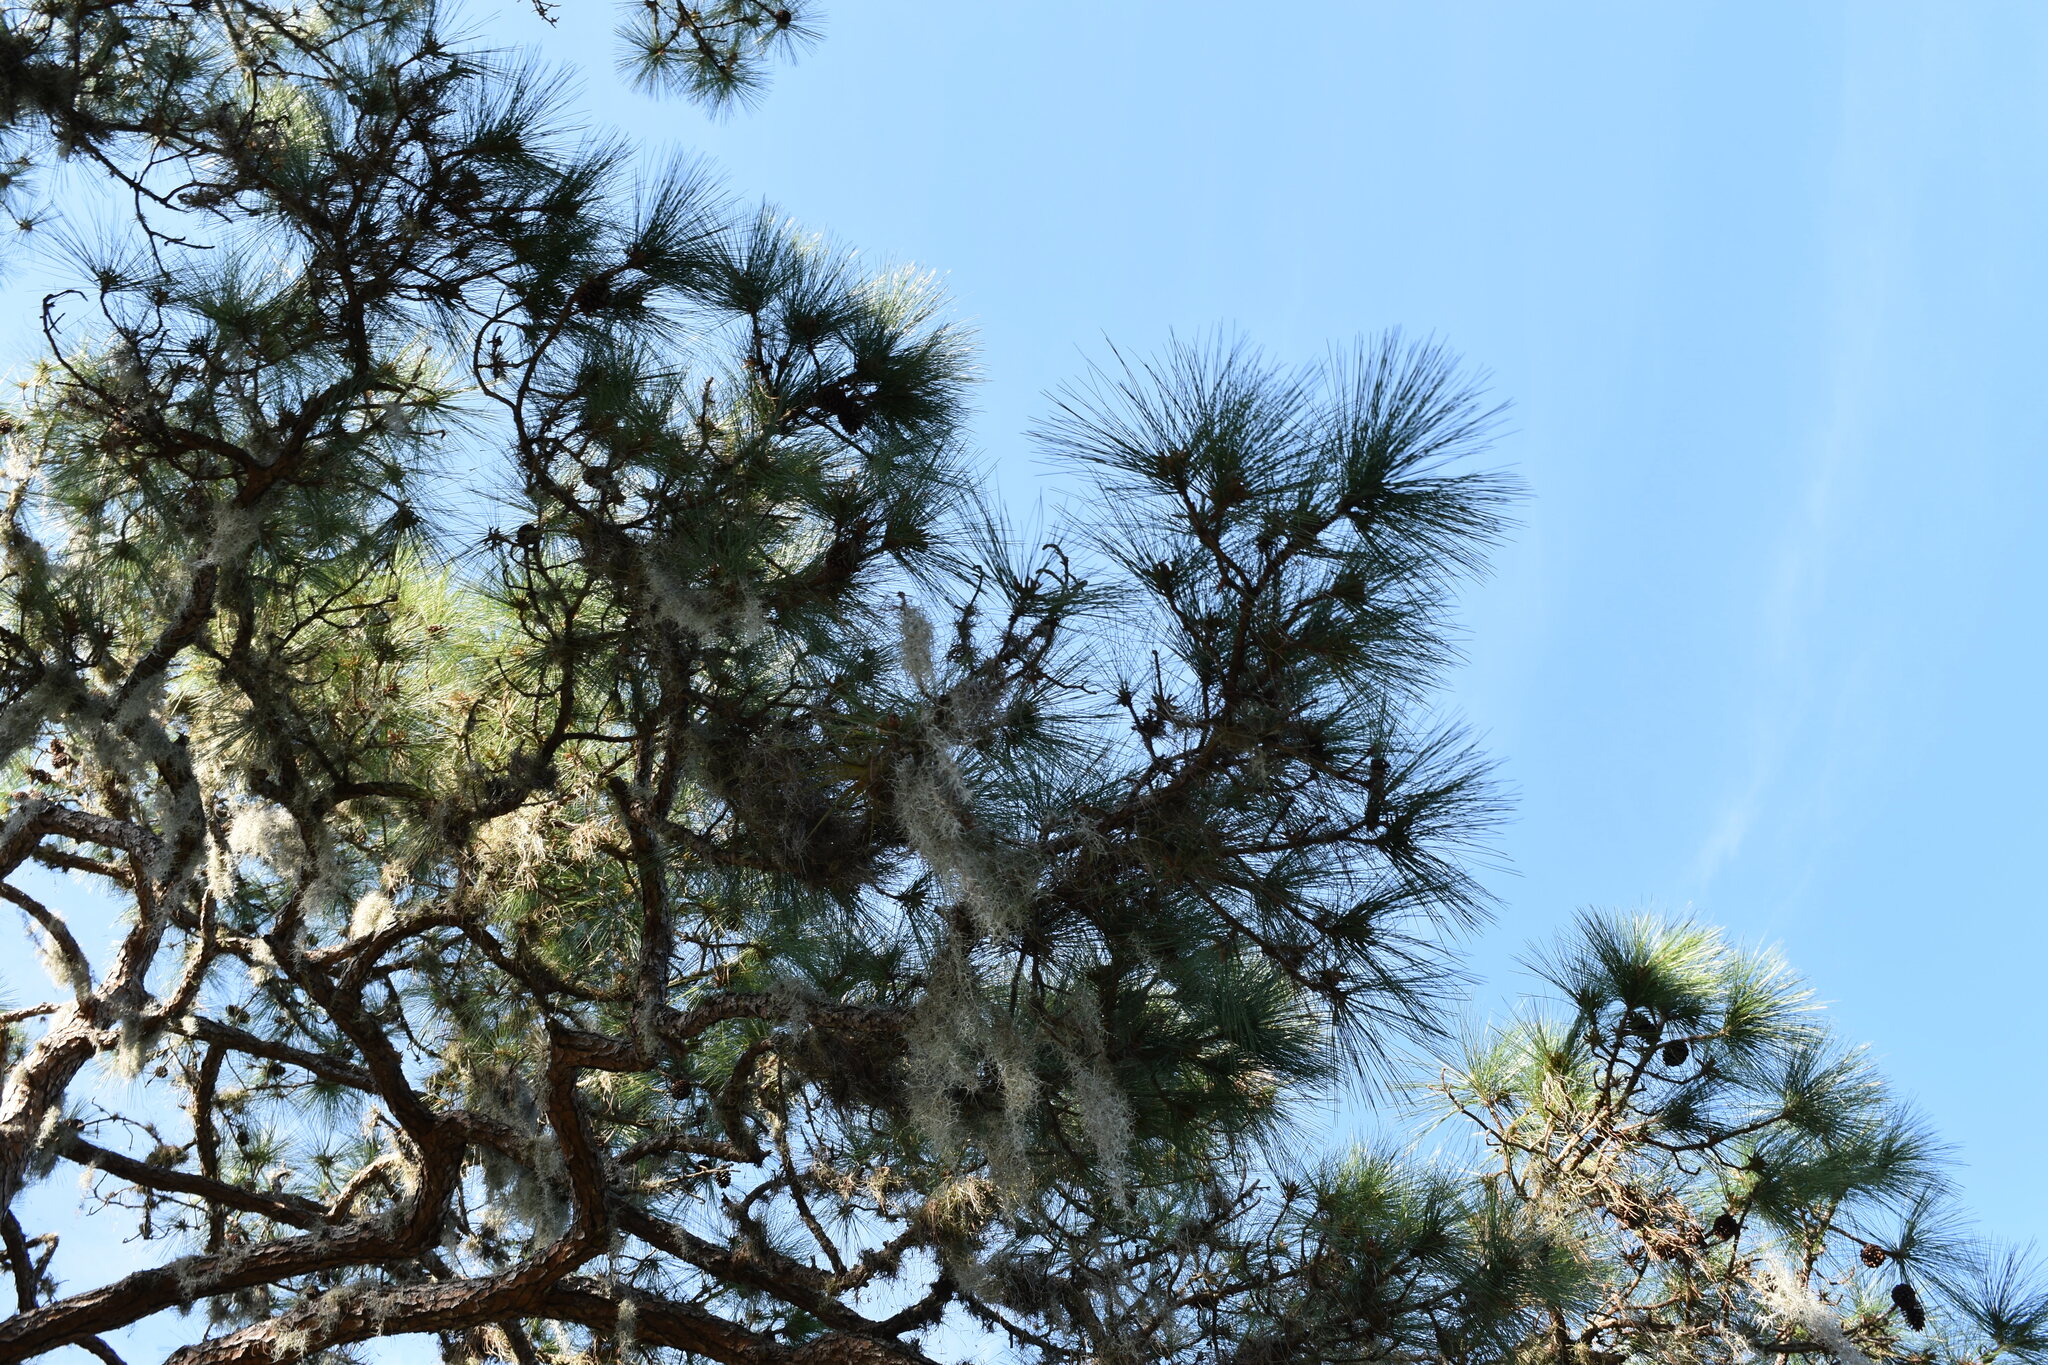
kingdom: Plantae
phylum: Tracheophyta
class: Pinopsida
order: Pinales
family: Pinaceae
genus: Pinus
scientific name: Pinus elliottii
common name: Slash pine
